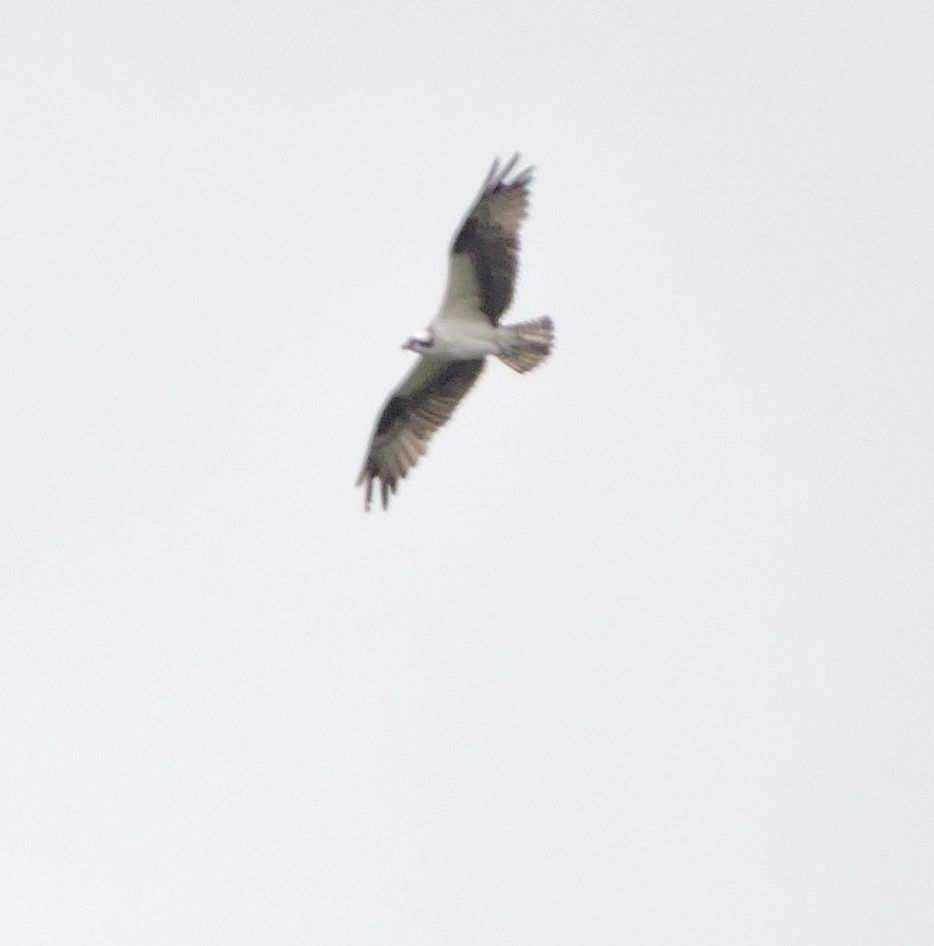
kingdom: Animalia
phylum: Chordata
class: Aves
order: Accipitriformes
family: Pandionidae
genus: Pandion
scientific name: Pandion haliaetus
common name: Osprey
